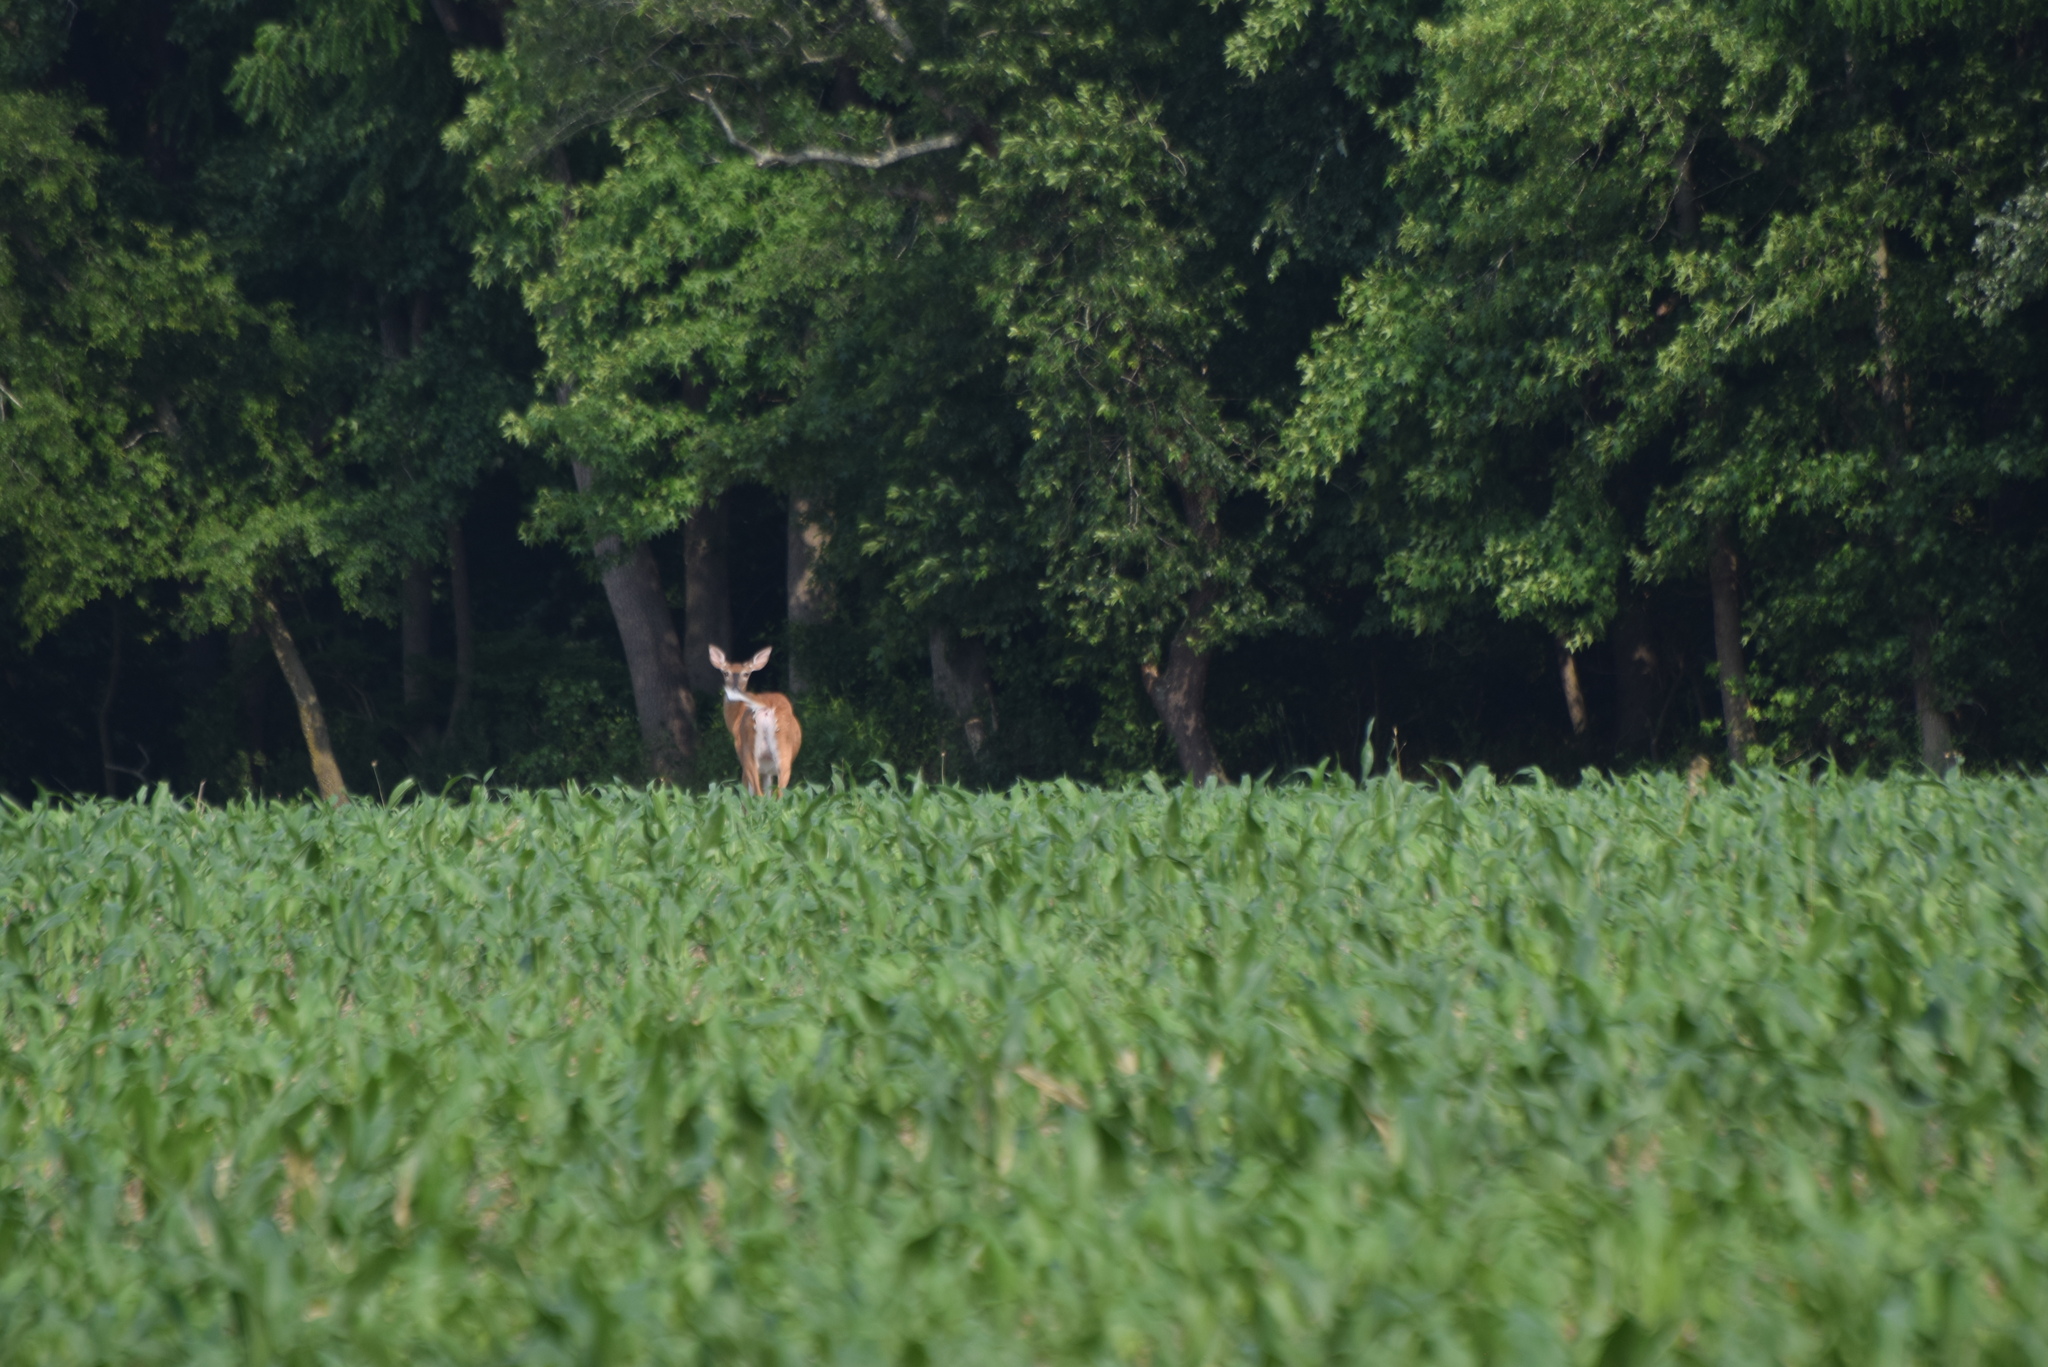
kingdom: Animalia
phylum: Chordata
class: Mammalia
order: Artiodactyla
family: Cervidae
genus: Odocoileus
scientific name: Odocoileus virginianus
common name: White-tailed deer
